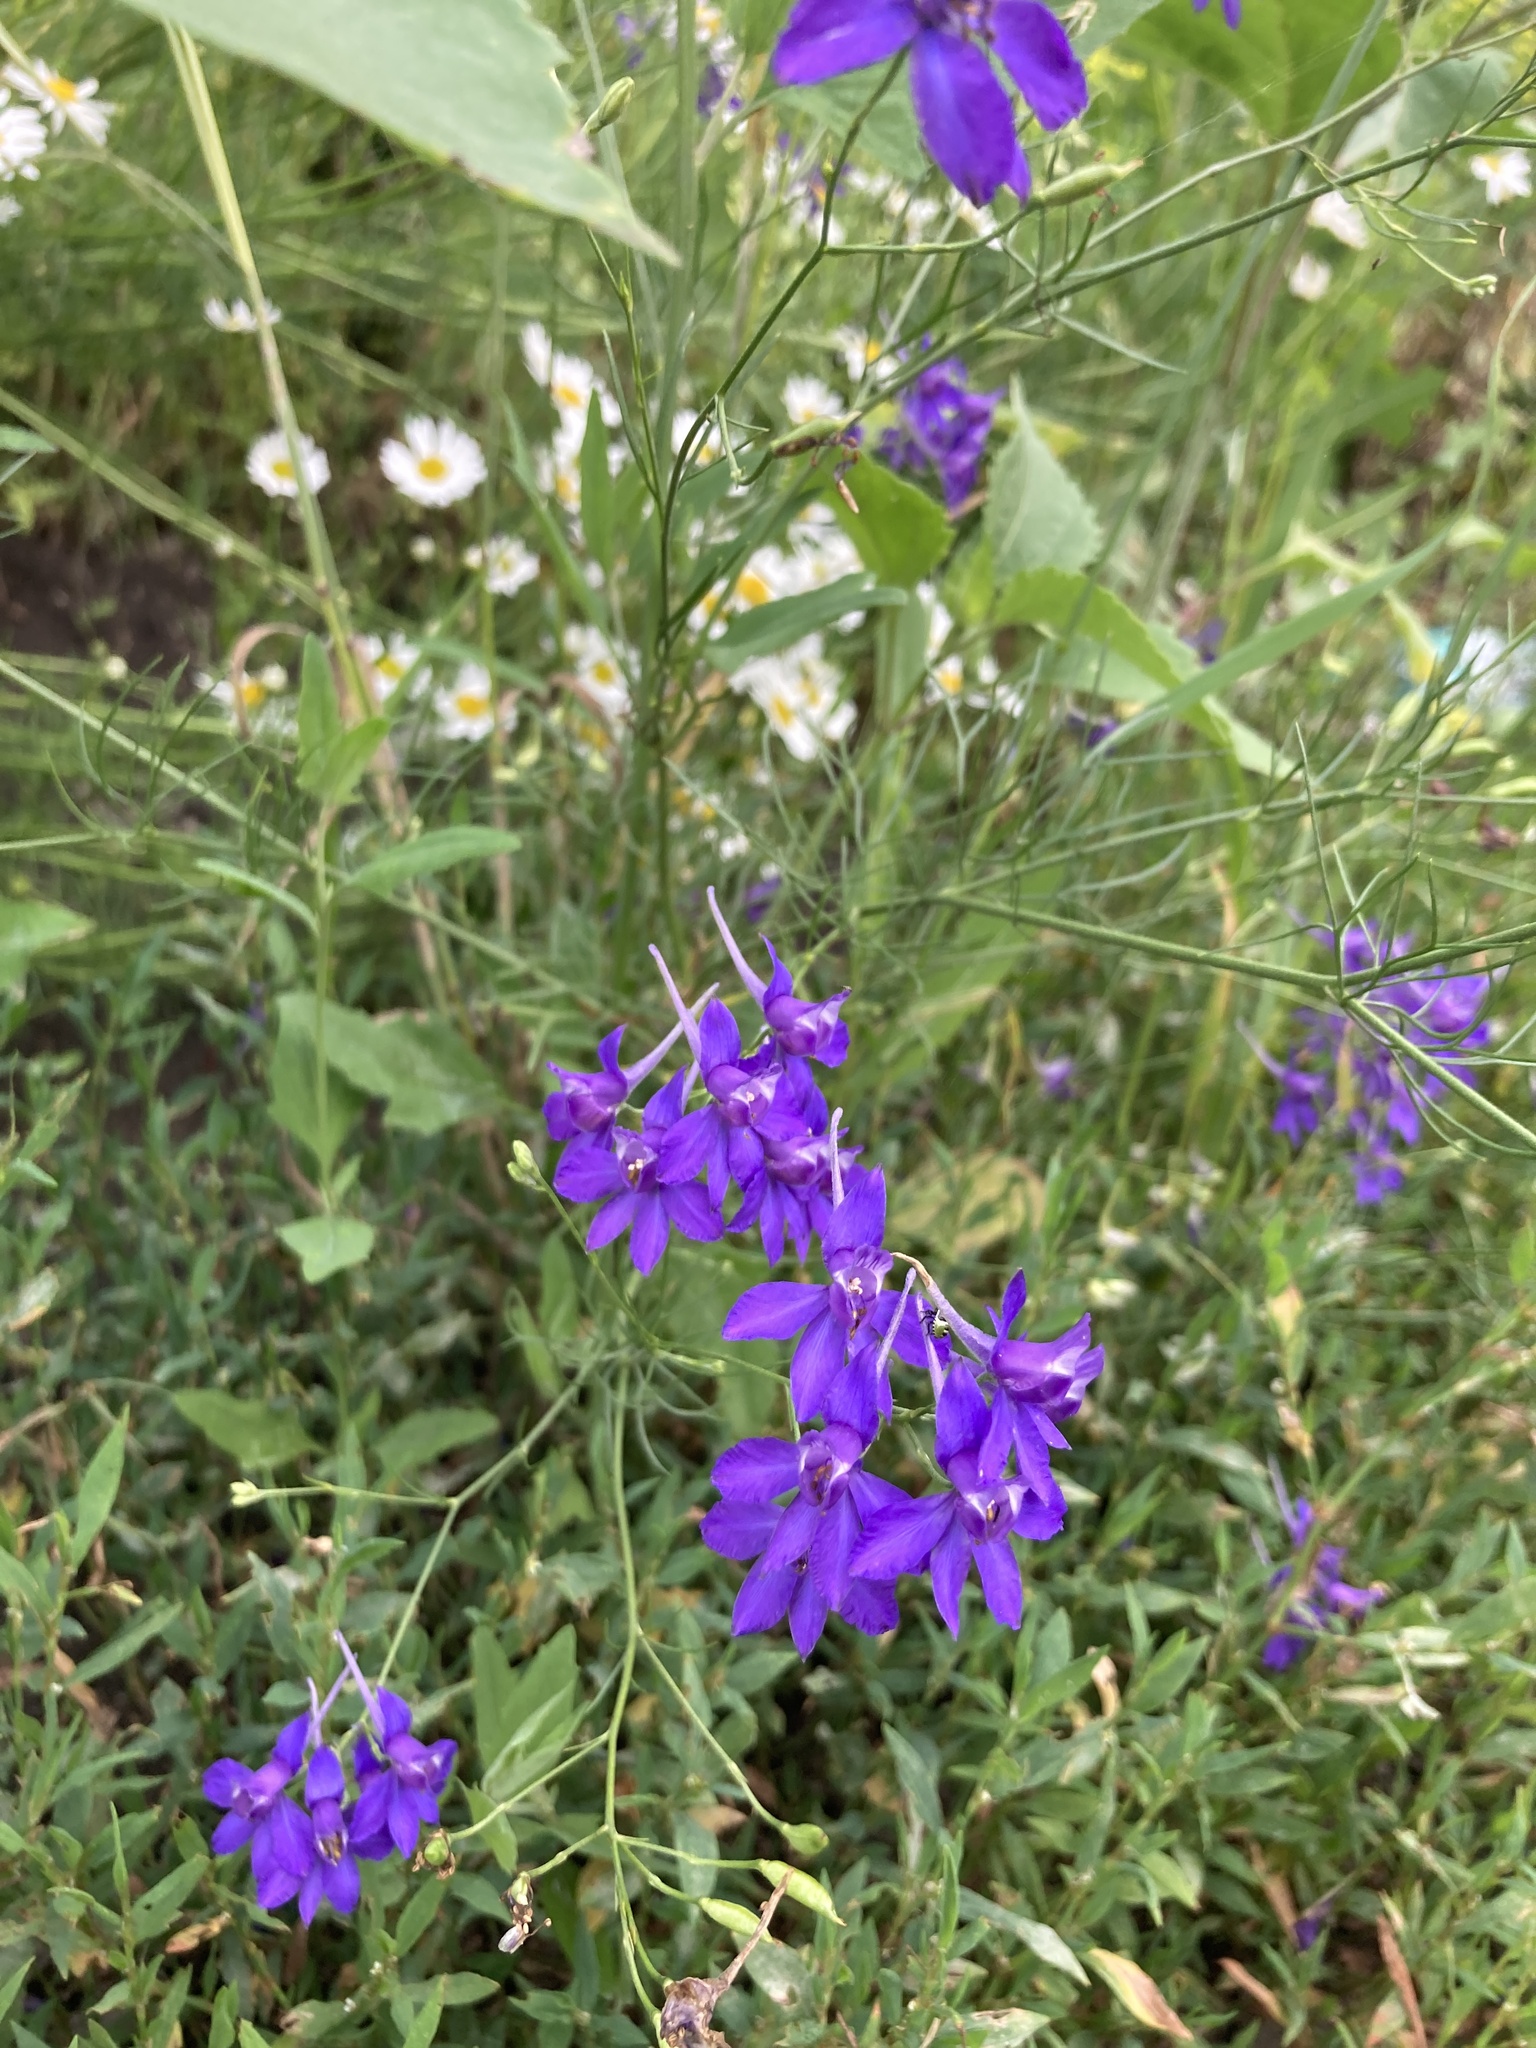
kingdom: Plantae
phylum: Tracheophyta
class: Magnoliopsida
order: Ranunculales
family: Ranunculaceae
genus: Delphinium
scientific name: Delphinium consolida
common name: Branching larkspur
